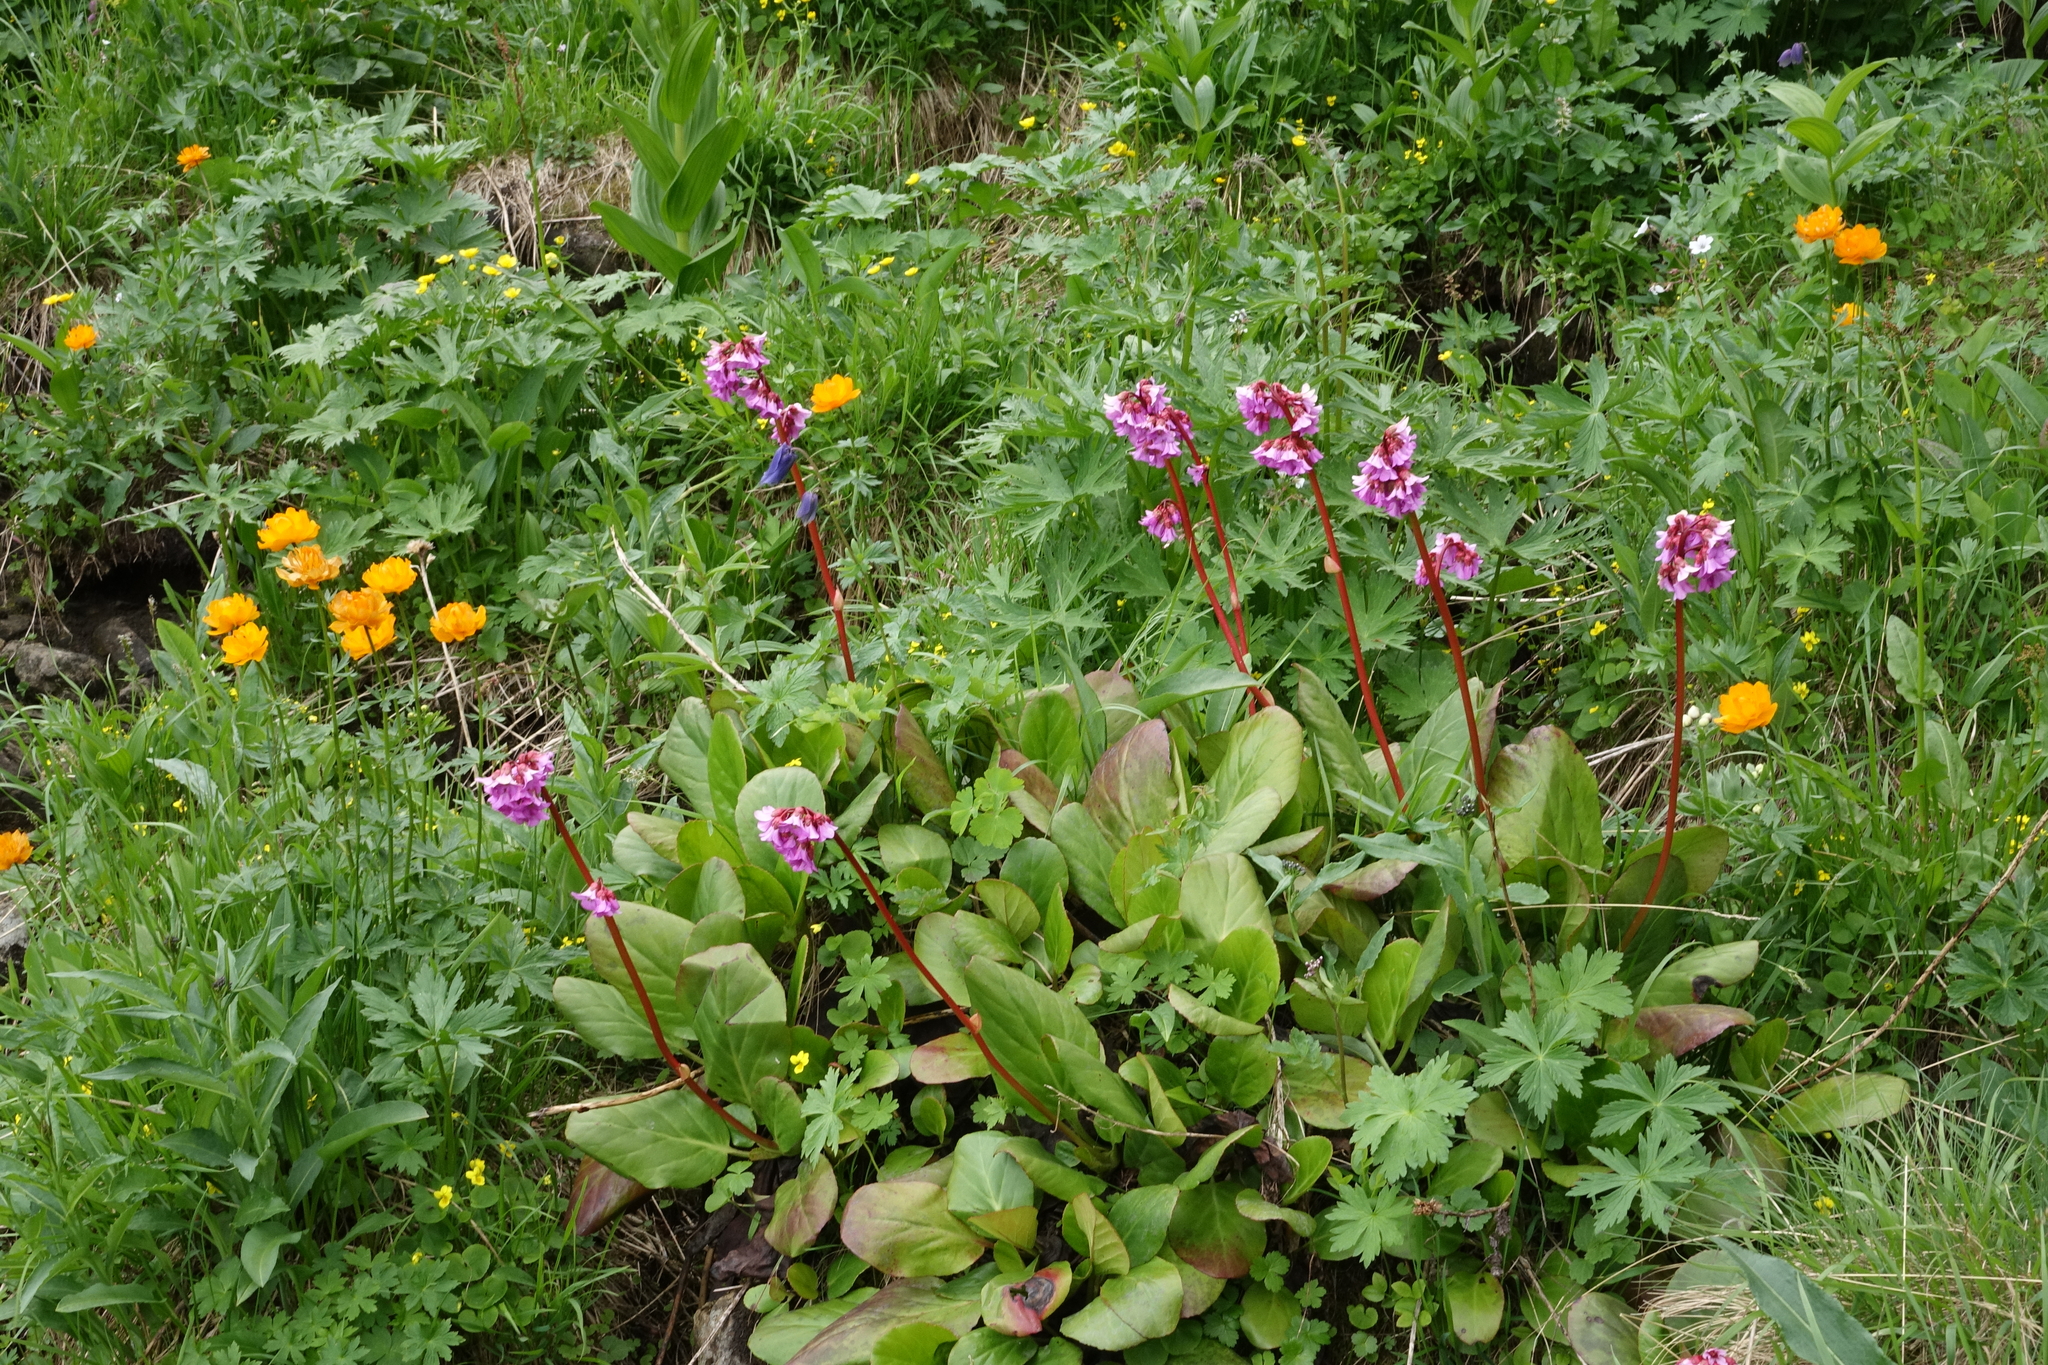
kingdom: Plantae
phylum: Tracheophyta
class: Magnoliopsida
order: Saxifragales
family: Saxifragaceae
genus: Bergenia
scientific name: Bergenia crassifolia
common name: Elephant-ears
